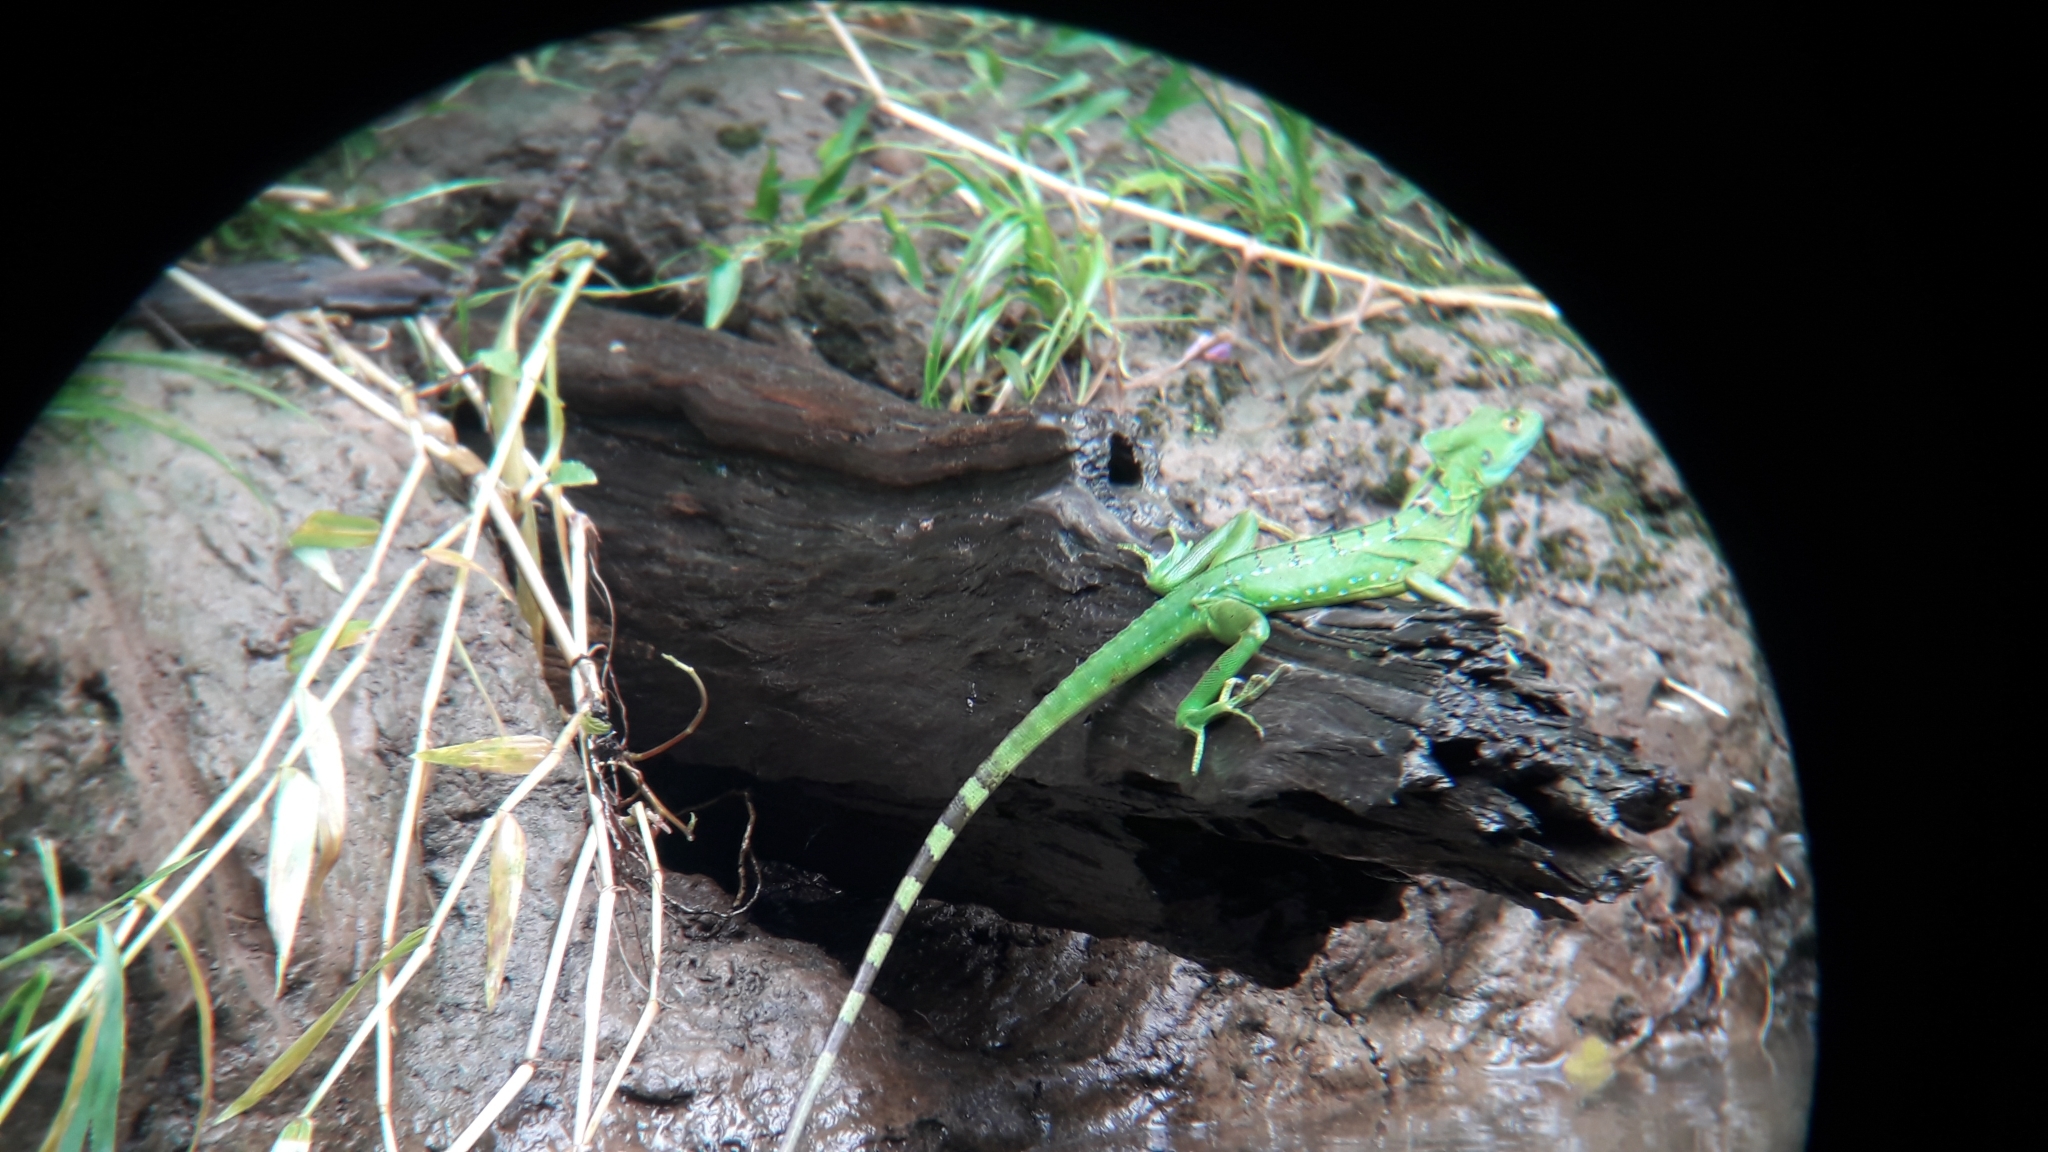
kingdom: Animalia
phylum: Chordata
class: Squamata
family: Corytophanidae
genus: Basiliscus
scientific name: Basiliscus plumifrons
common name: Green basilisk
